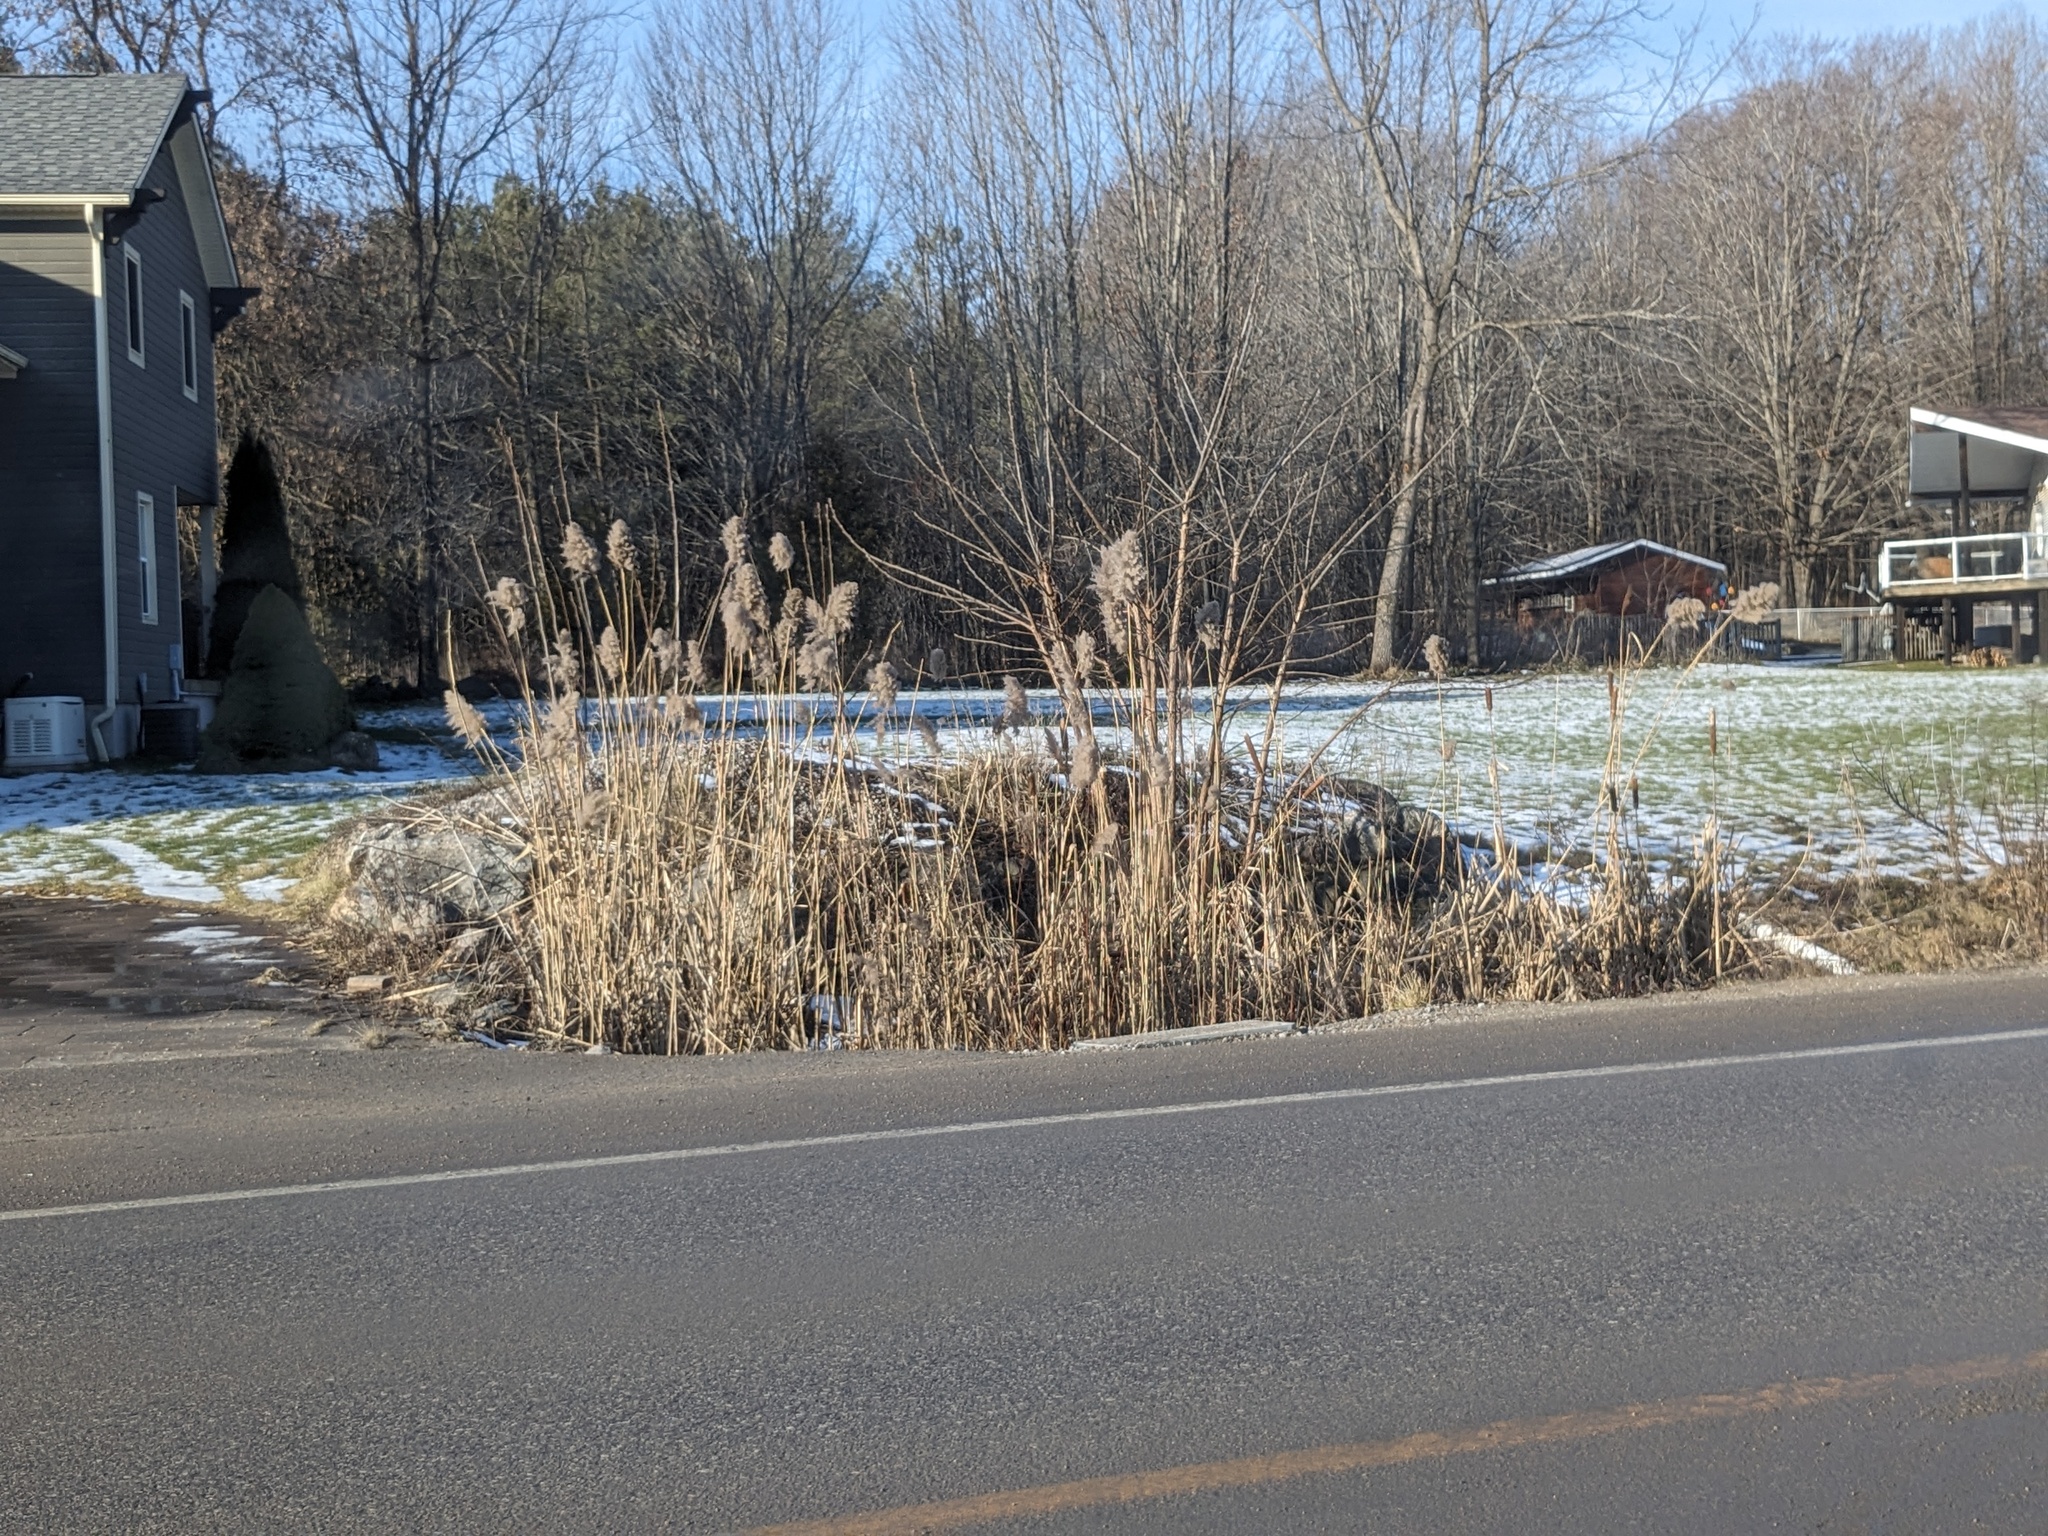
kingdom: Plantae
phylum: Tracheophyta
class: Liliopsida
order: Poales
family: Poaceae
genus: Phragmites
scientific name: Phragmites australis
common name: Common reed
